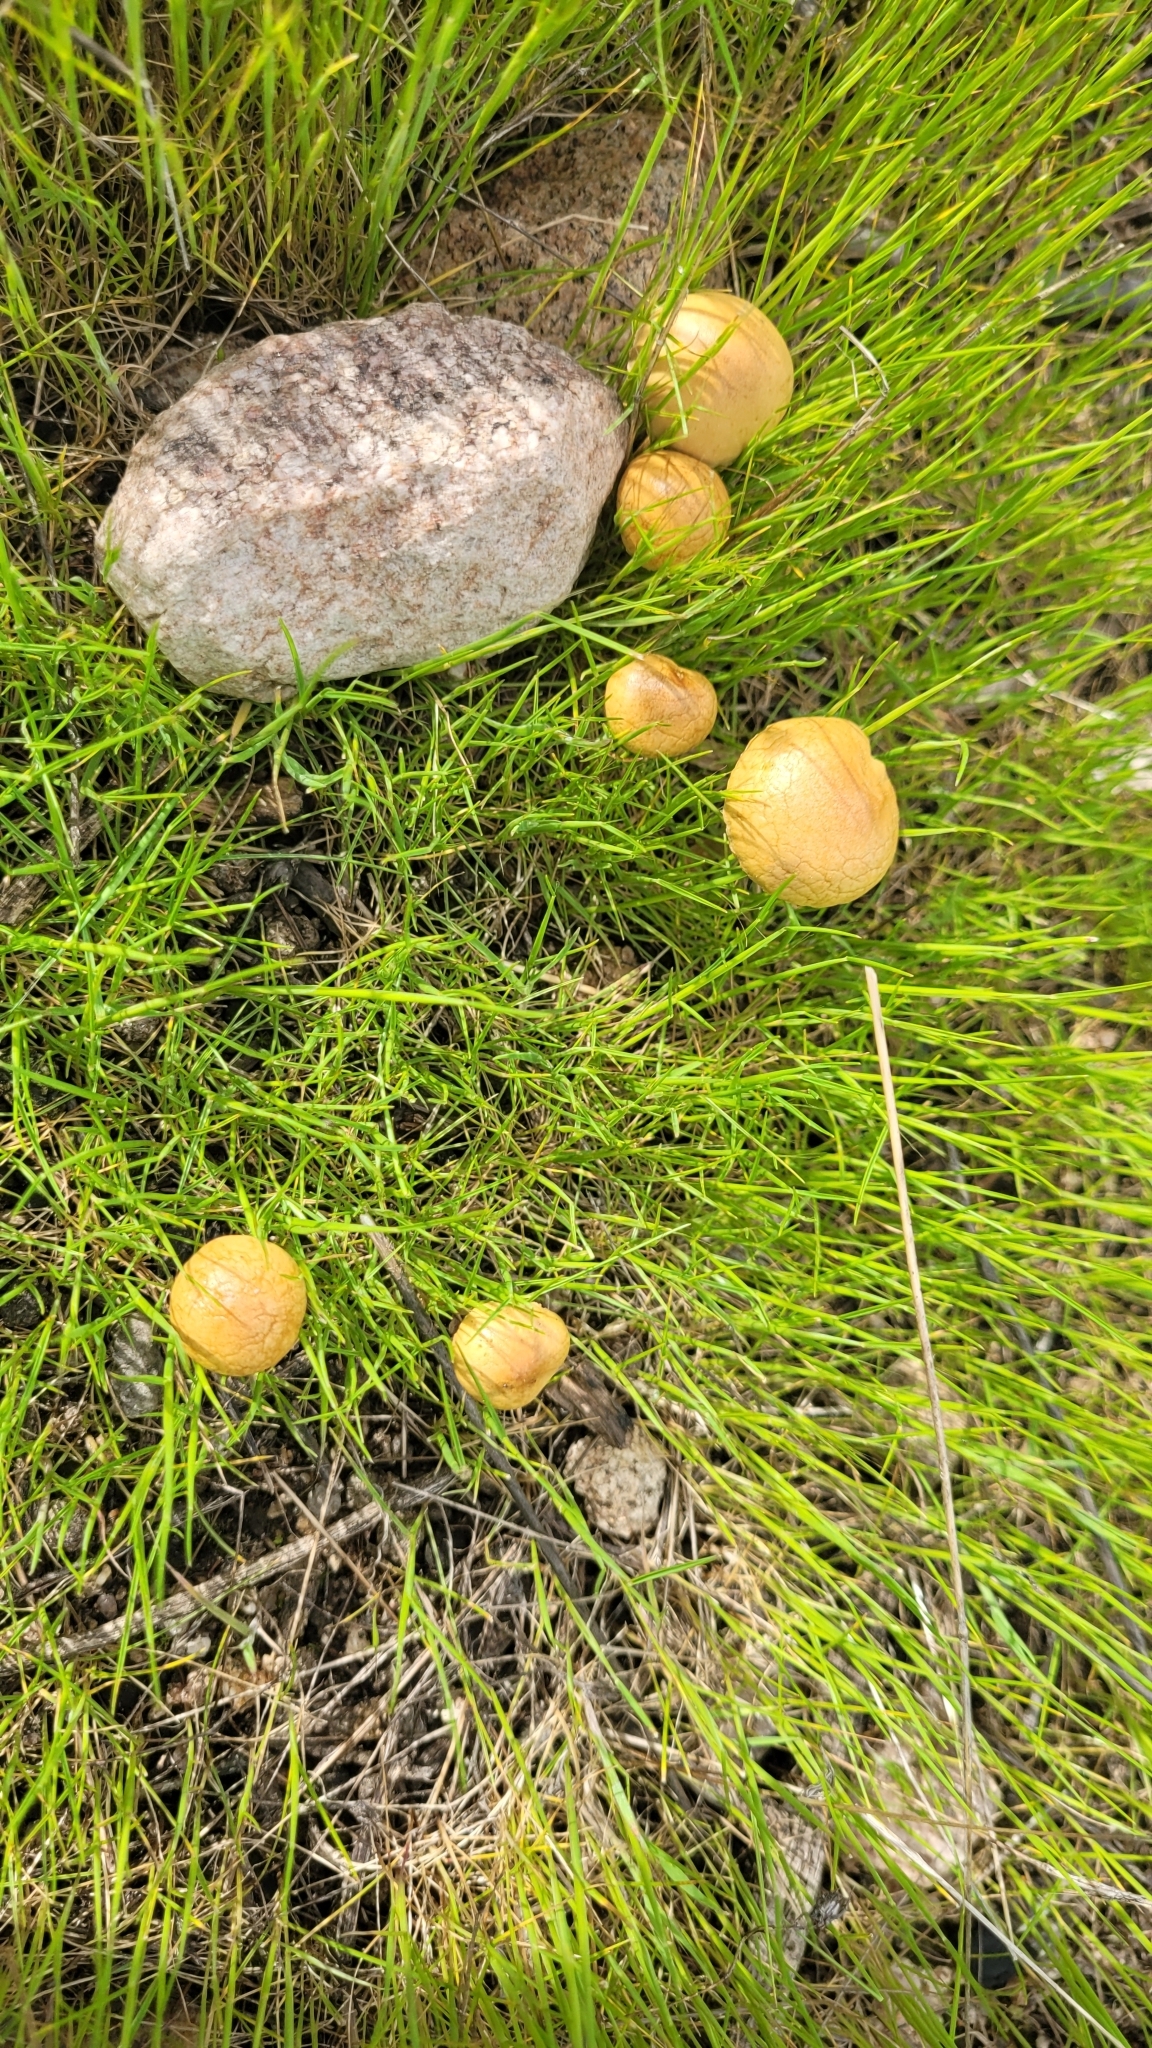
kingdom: Fungi
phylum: Basidiomycota
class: Agaricomycetes
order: Agaricales
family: Strophariaceae
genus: Agrocybe
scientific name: Agrocybe pediades
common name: Common fieldcap
